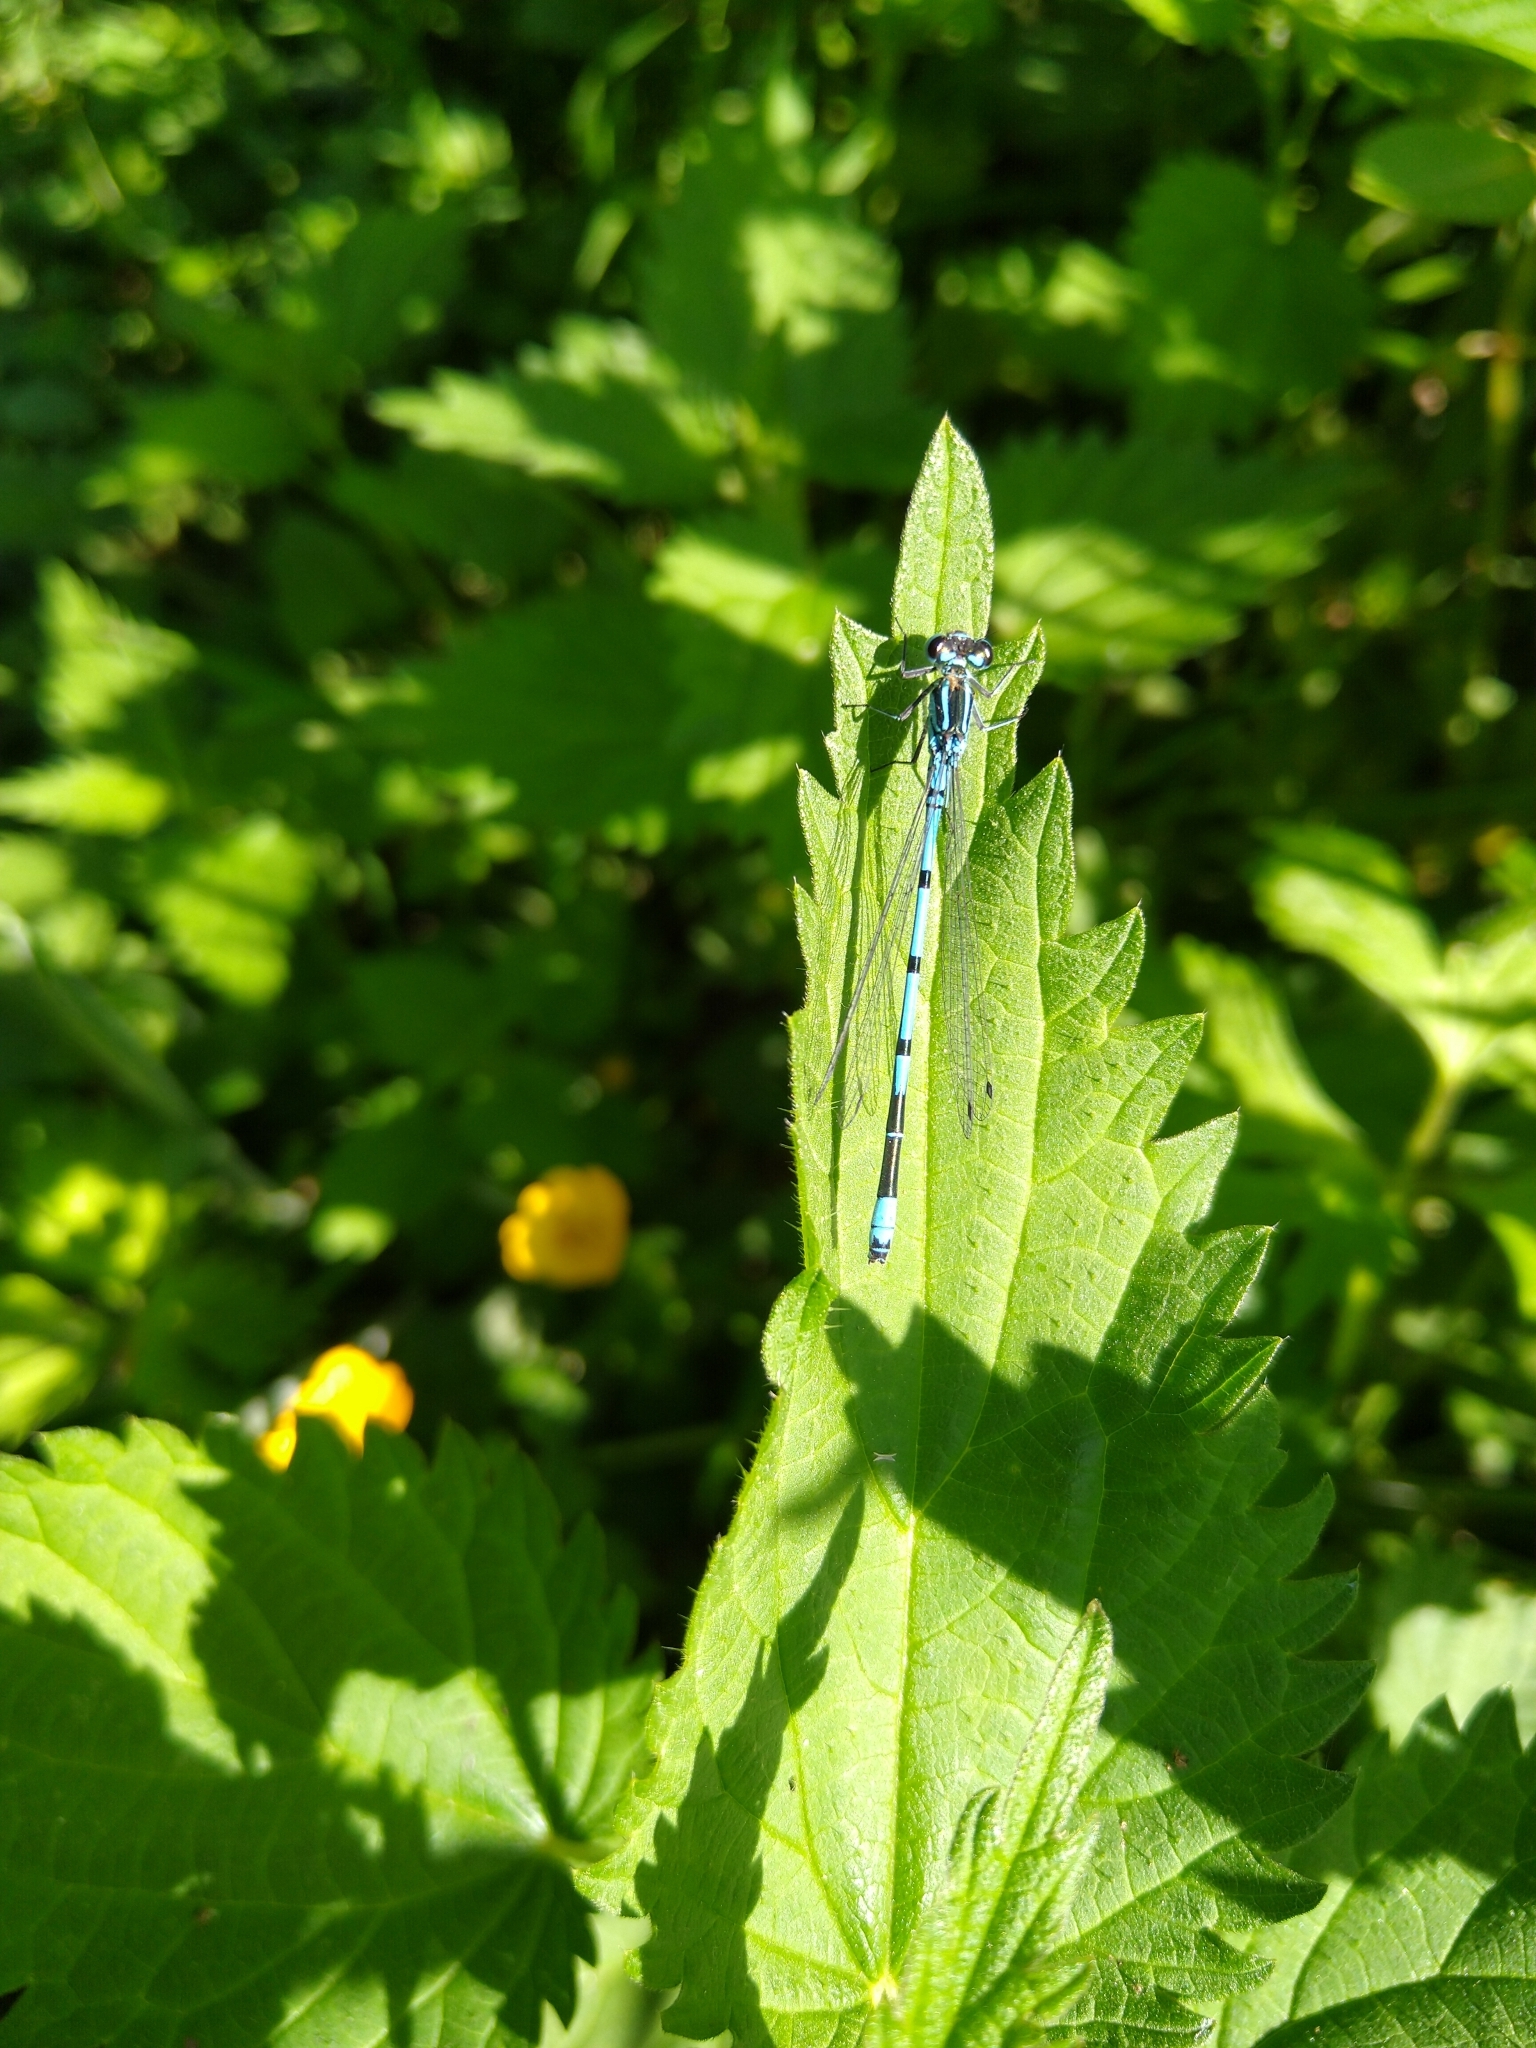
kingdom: Animalia
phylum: Arthropoda
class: Insecta
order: Odonata
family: Coenagrionidae
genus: Coenagrion
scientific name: Coenagrion puella
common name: Azure damselfly
